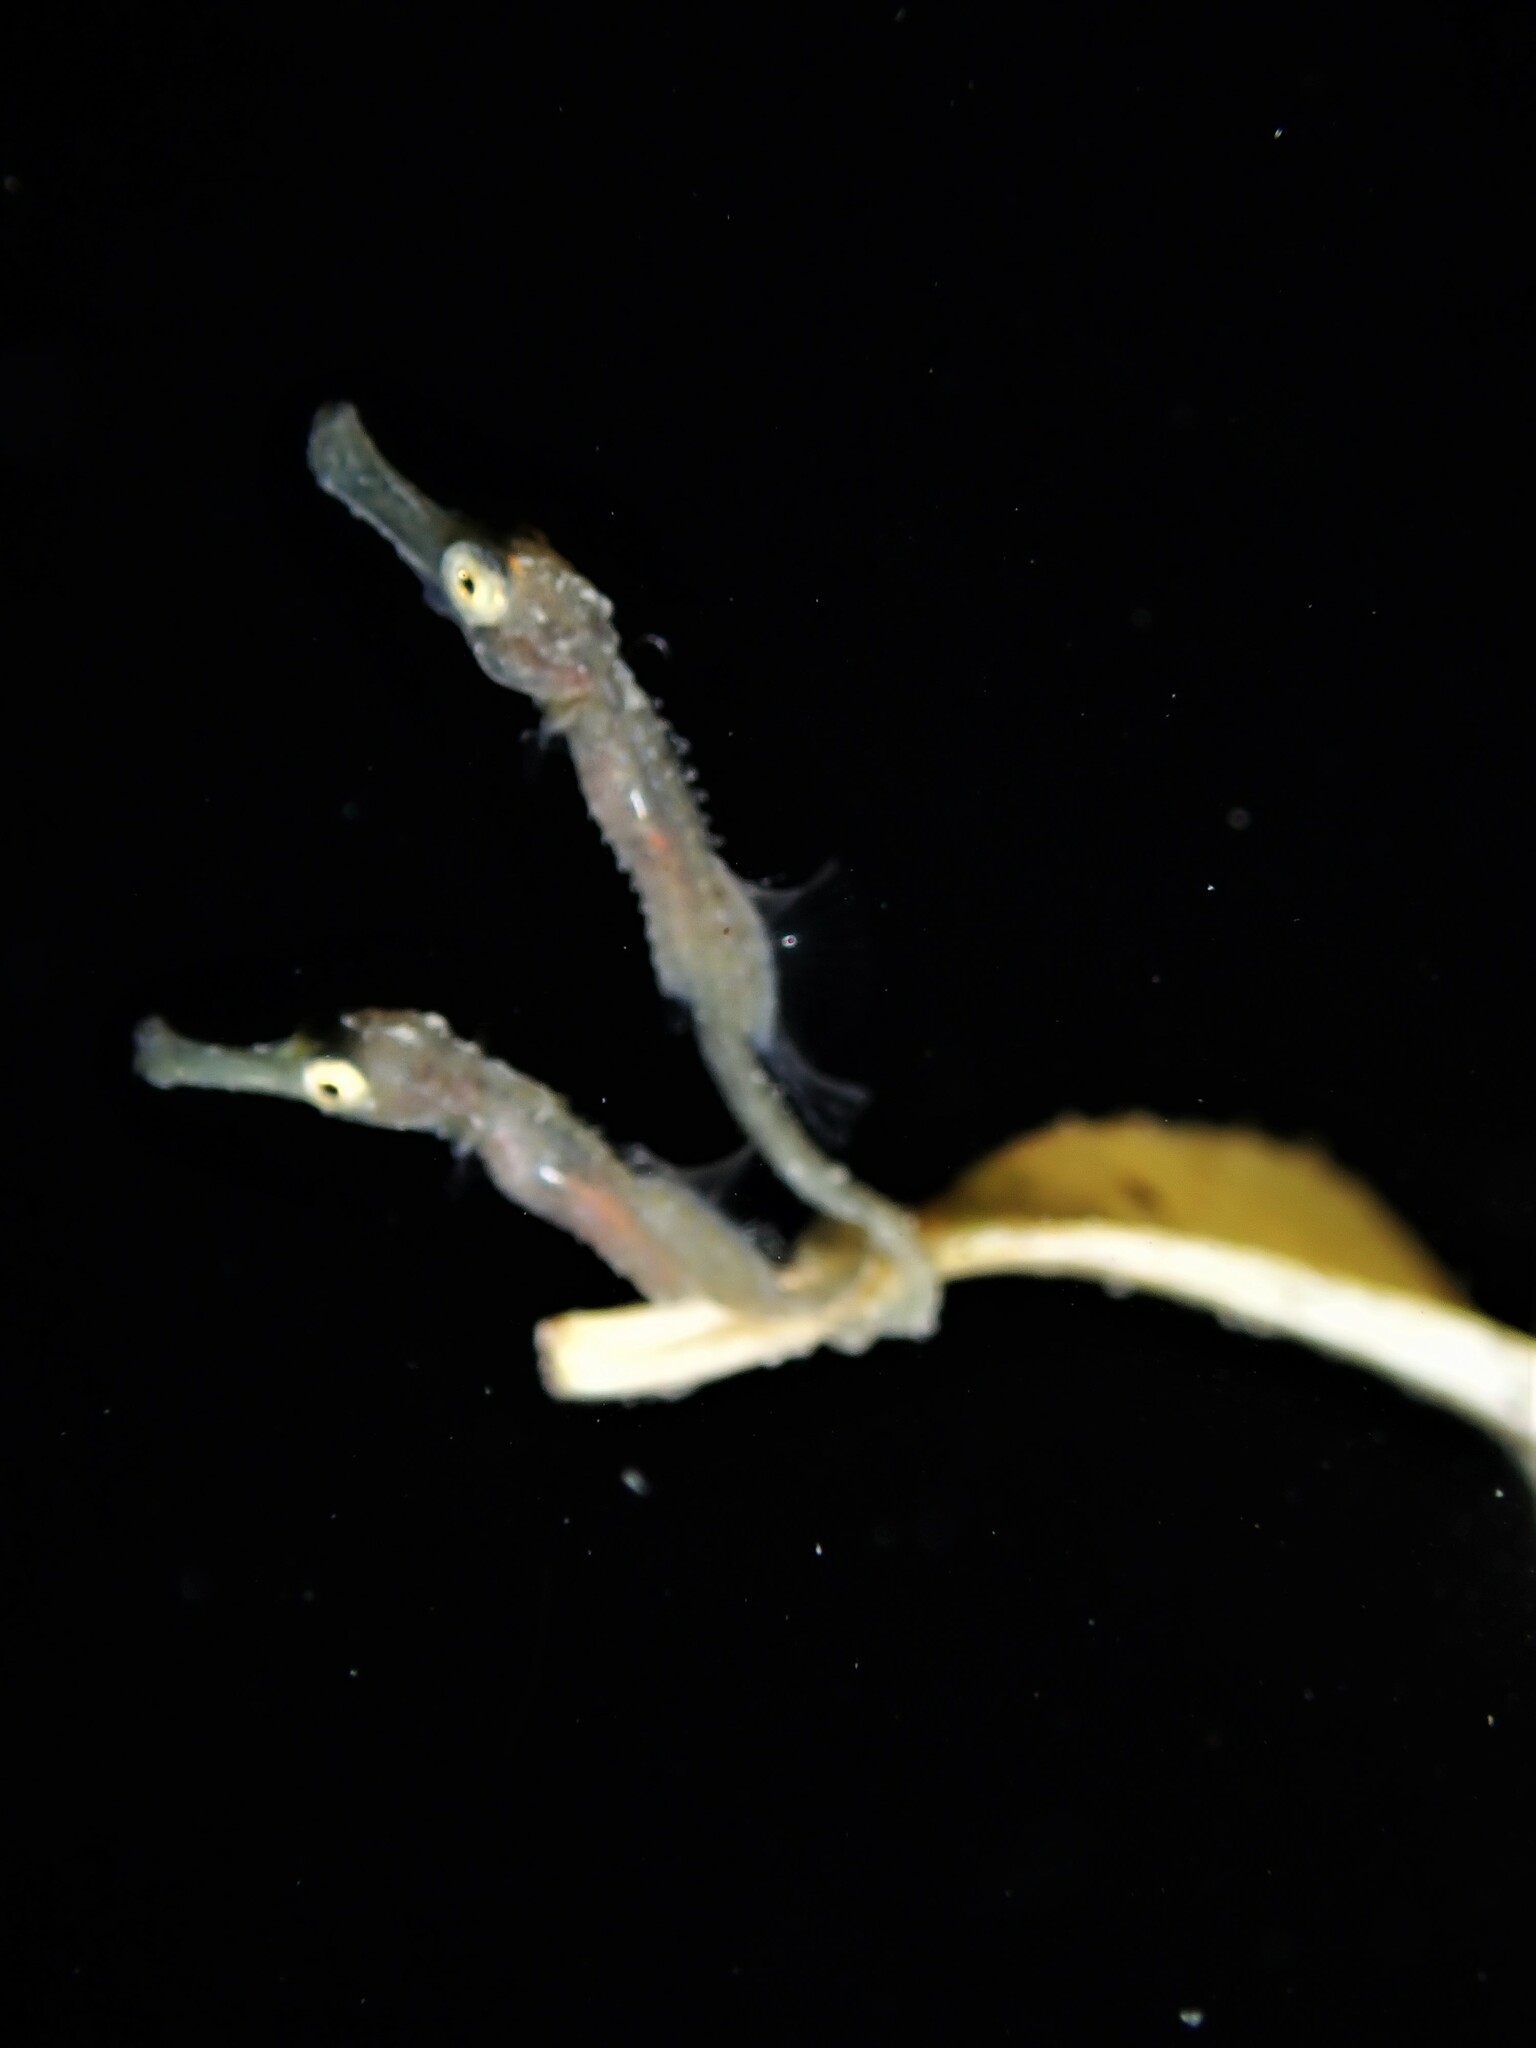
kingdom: Animalia
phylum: Chordata
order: Syngnathiformes
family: Syngnathidae
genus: Hippocampus
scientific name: Hippocampus abdominalis
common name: Big-belly seahorse
